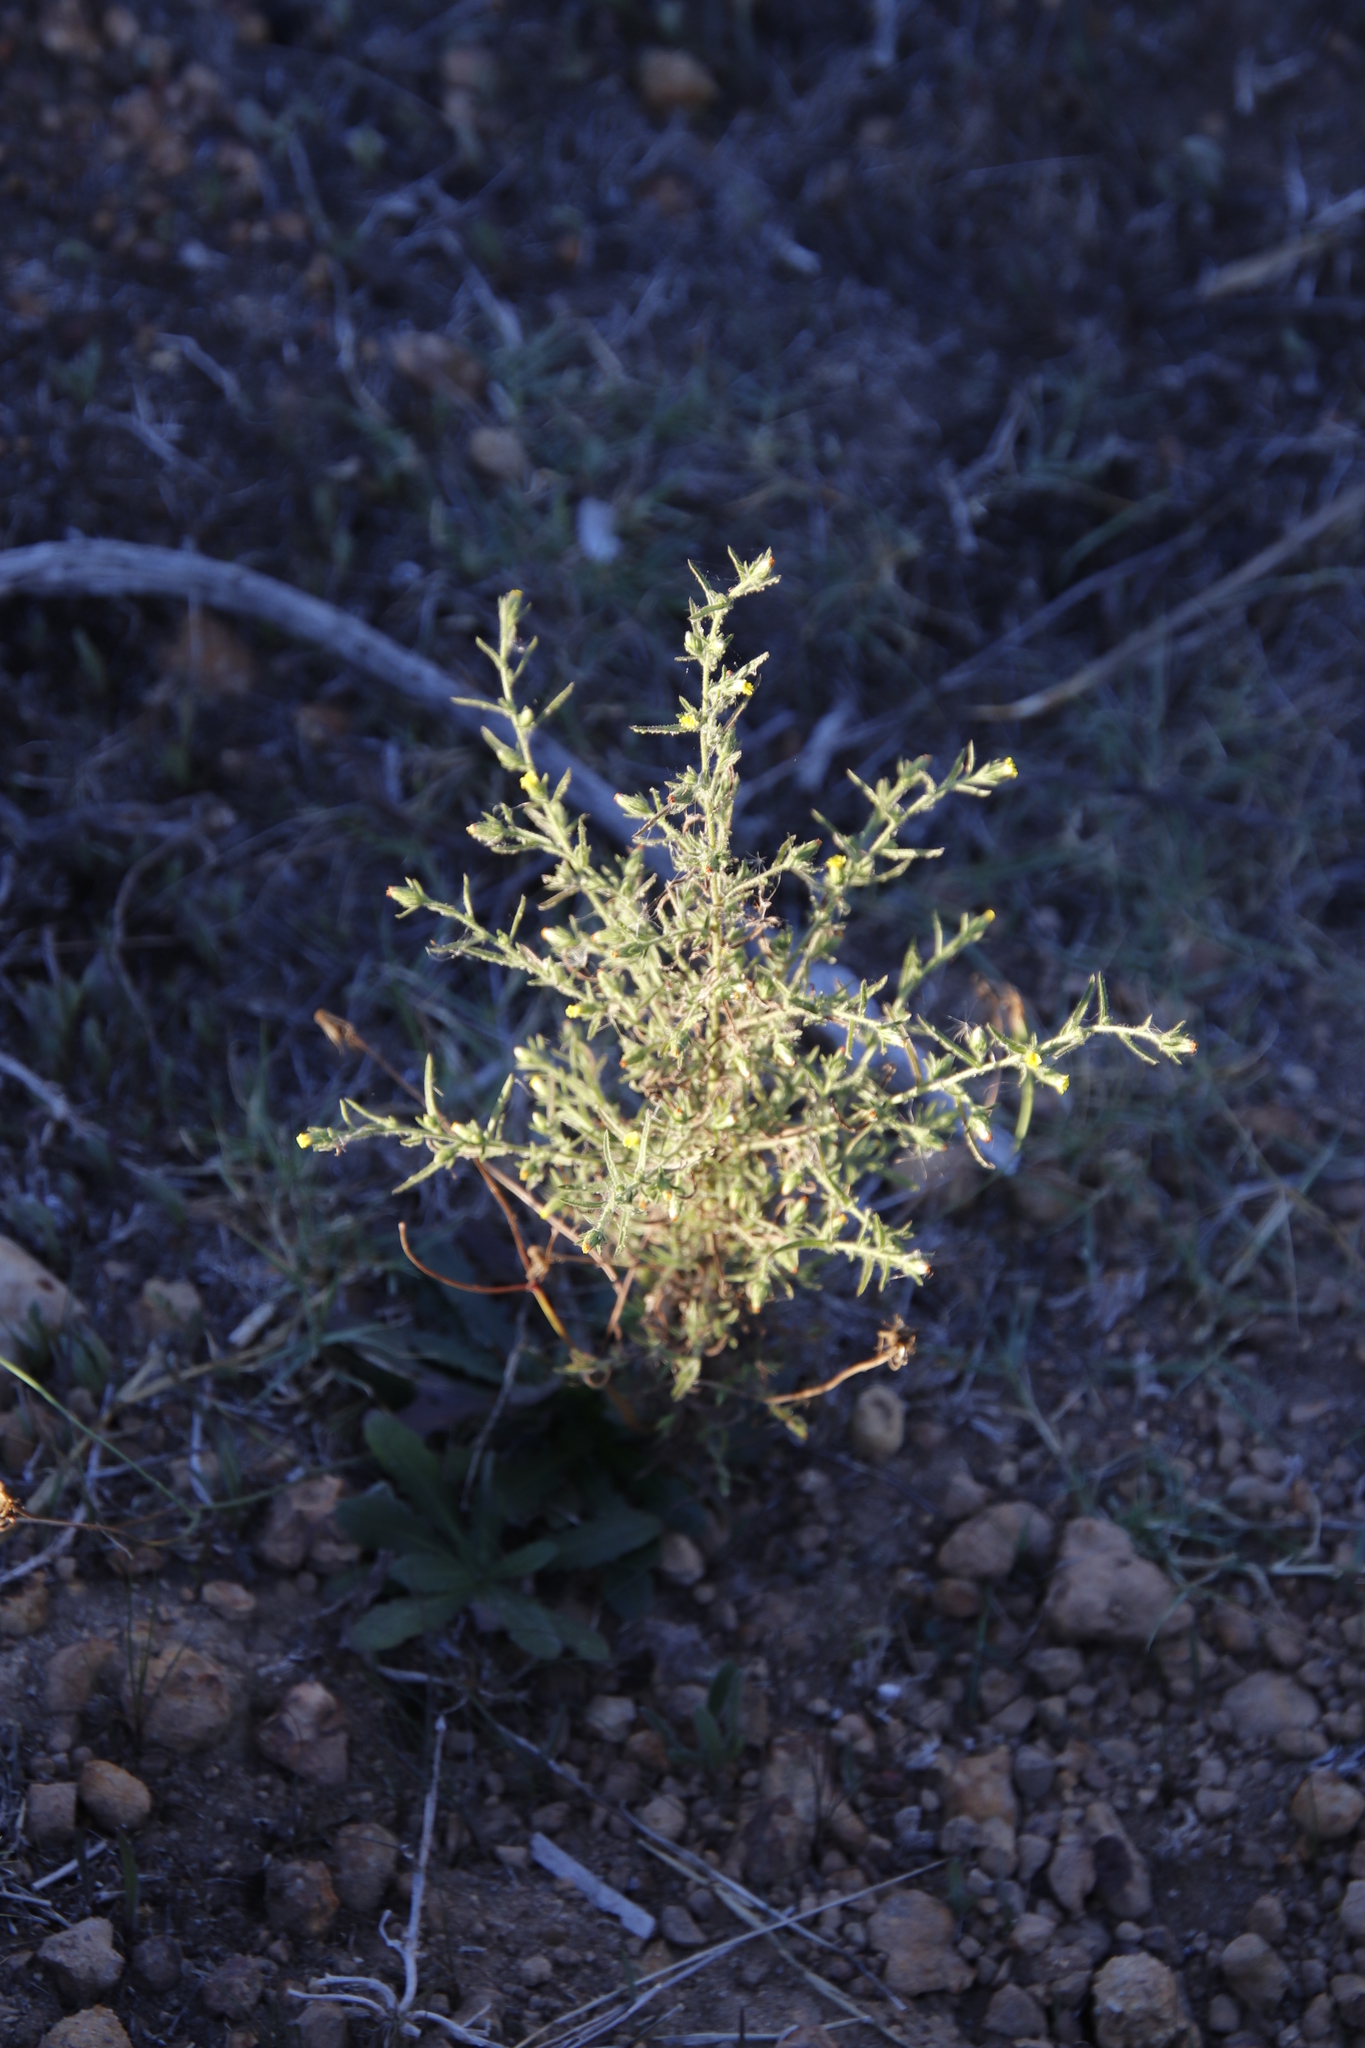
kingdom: Plantae
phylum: Tracheophyta
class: Magnoliopsida
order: Asterales
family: Asteraceae
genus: Dittrichia
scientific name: Dittrichia graveolens
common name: Stinking fleabane
